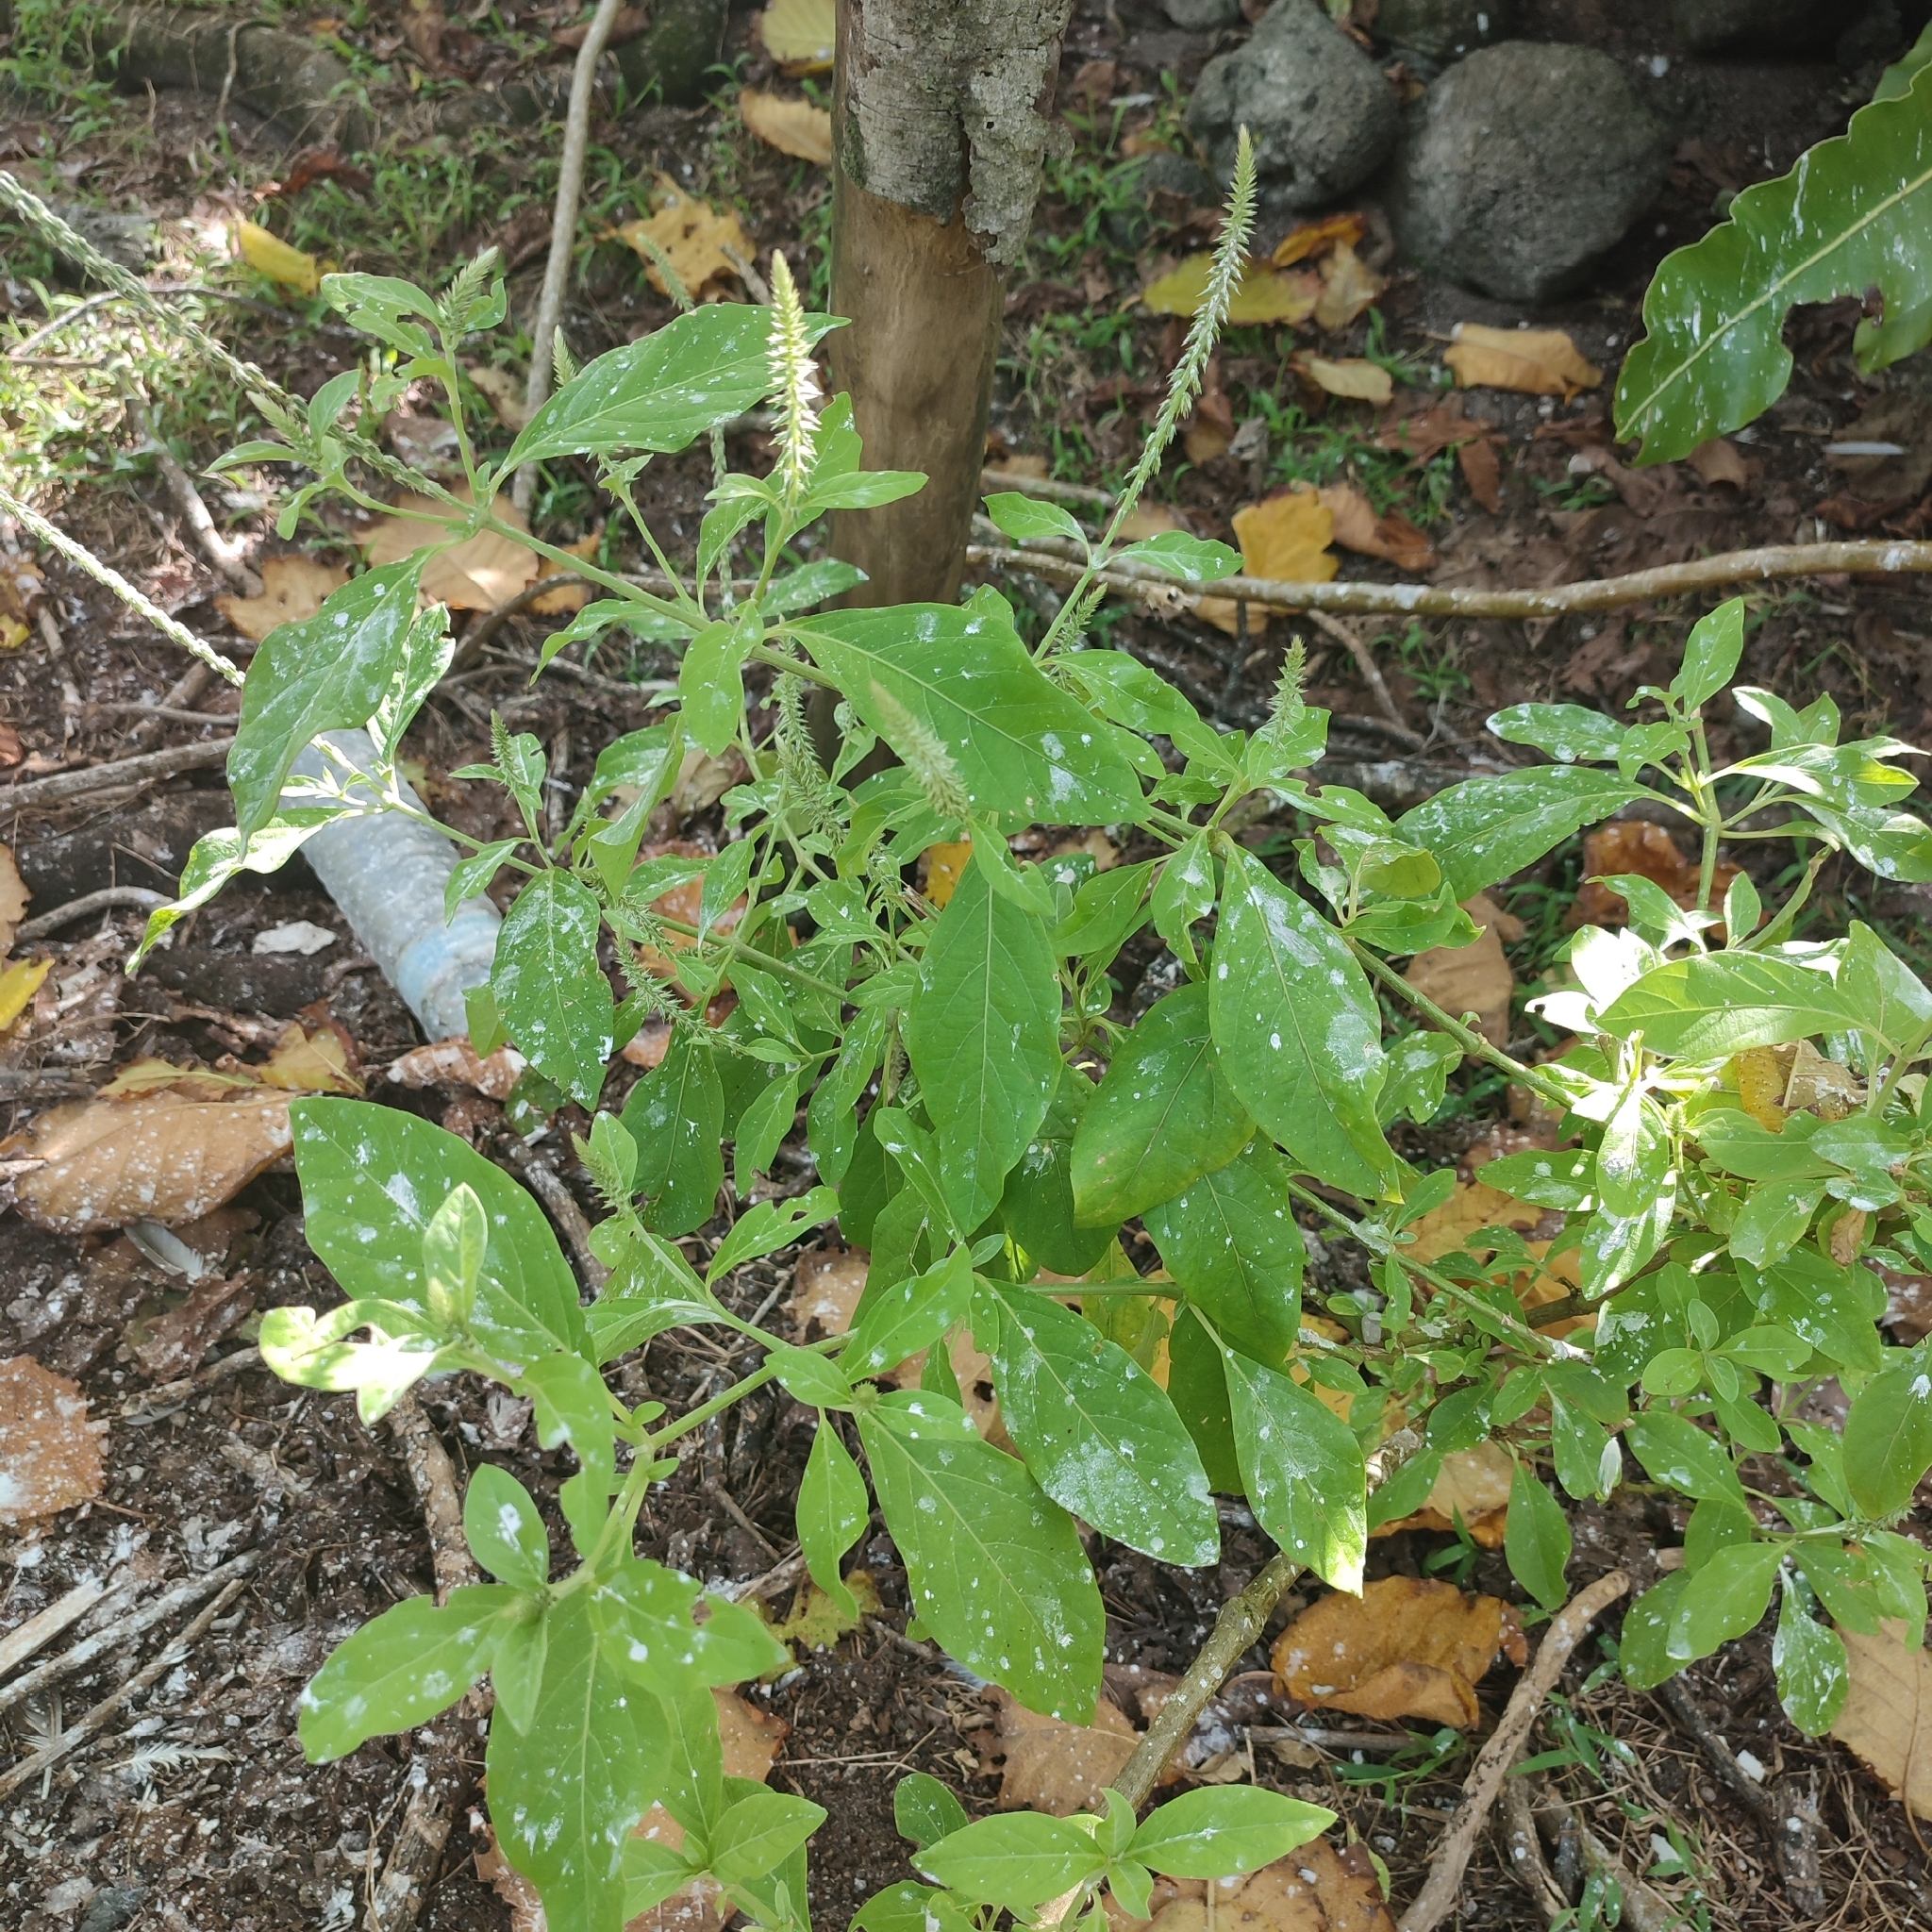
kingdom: Plantae
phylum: Tracheophyta
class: Magnoliopsida
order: Caryophyllales
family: Amaranthaceae
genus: Achyranthes
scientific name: Achyranthes aspera
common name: Devil's horsewhip
